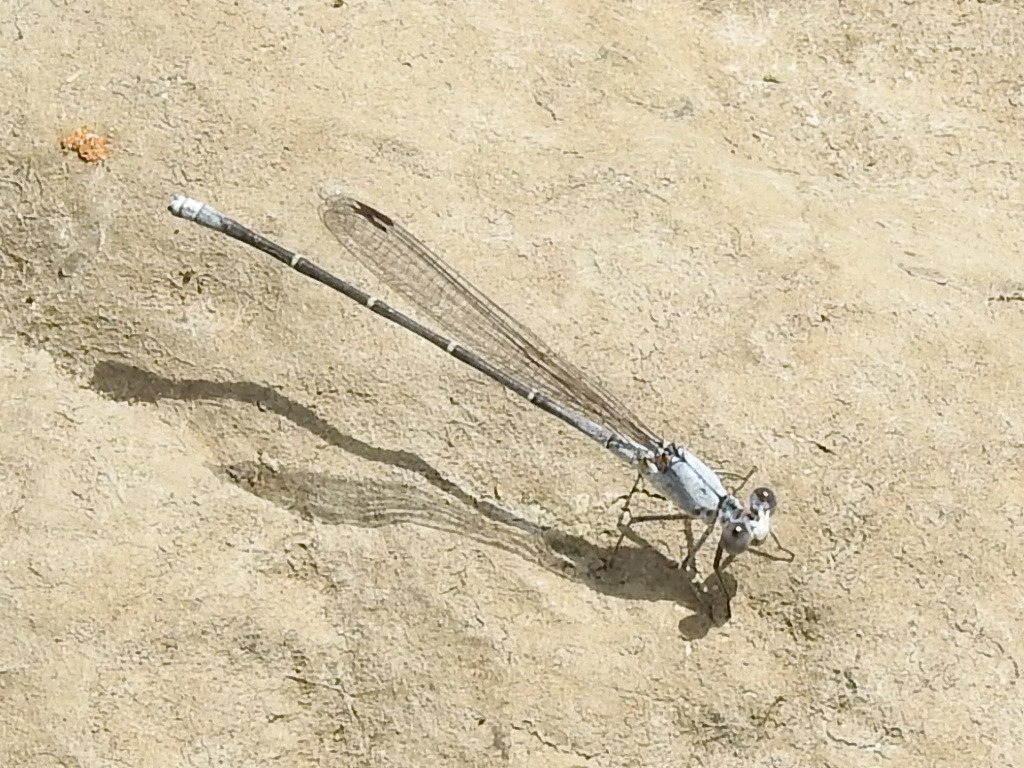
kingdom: Animalia
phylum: Arthropoda
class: Insecta
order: Odonata
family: Coenagrionidae
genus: Argia
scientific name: Argia moesta
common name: Powdered dancer
